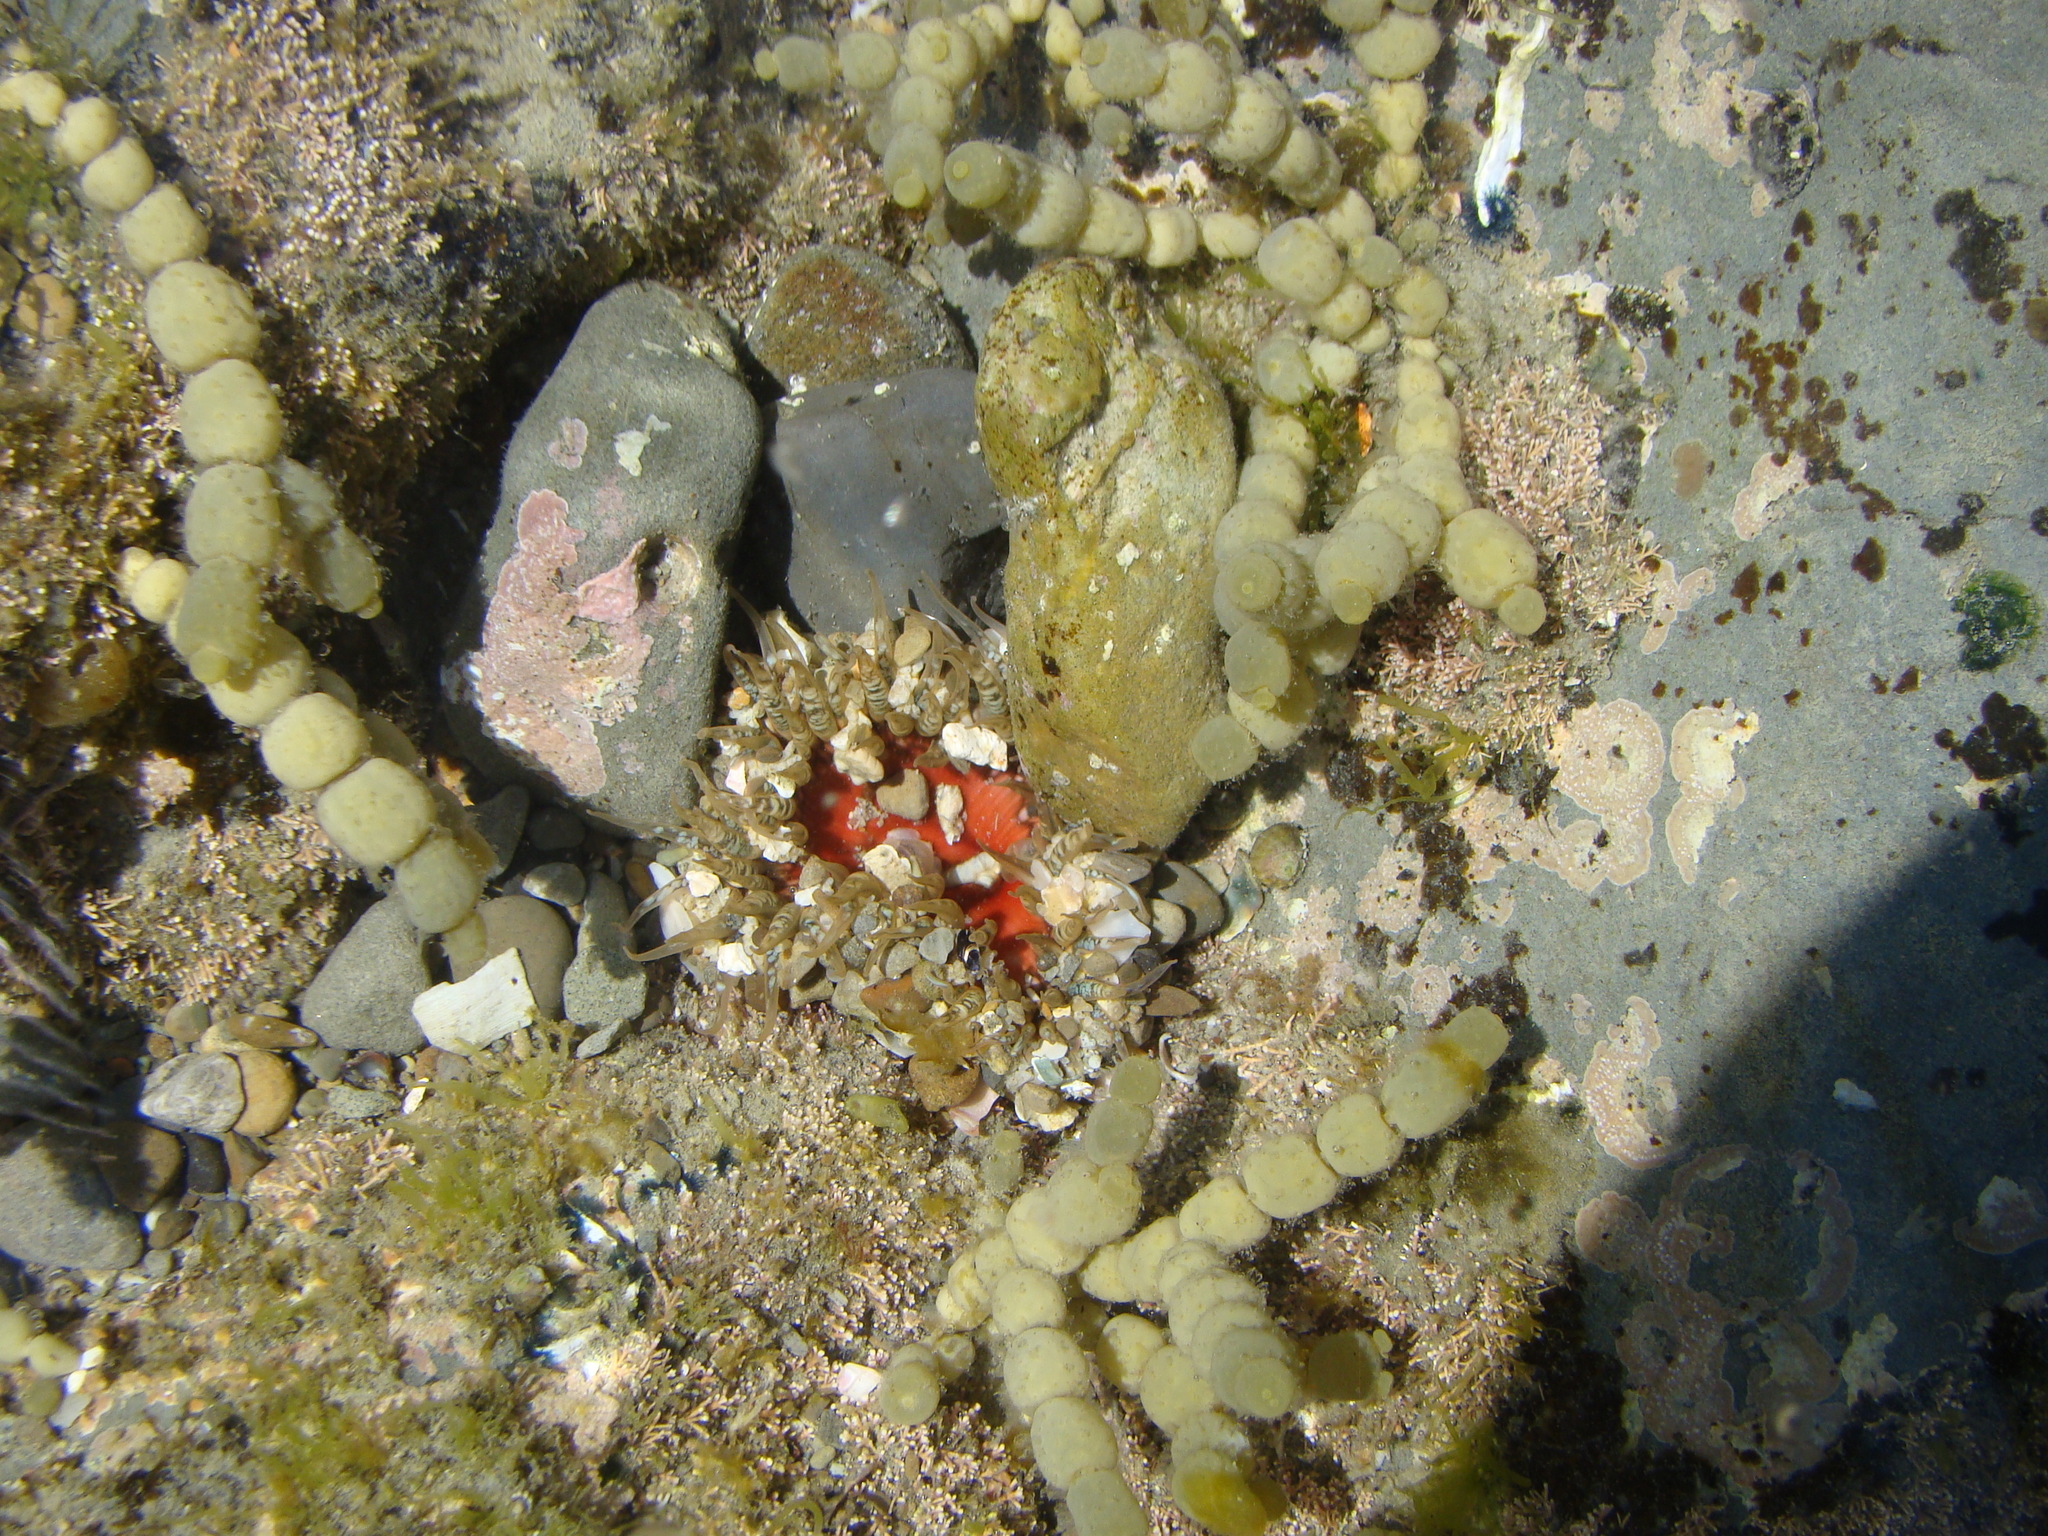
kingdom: Animalia
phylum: Cnidaria
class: Anthozoa
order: Actiniaria
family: Actiniidae
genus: Oulactis
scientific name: Oulactis muscosa
